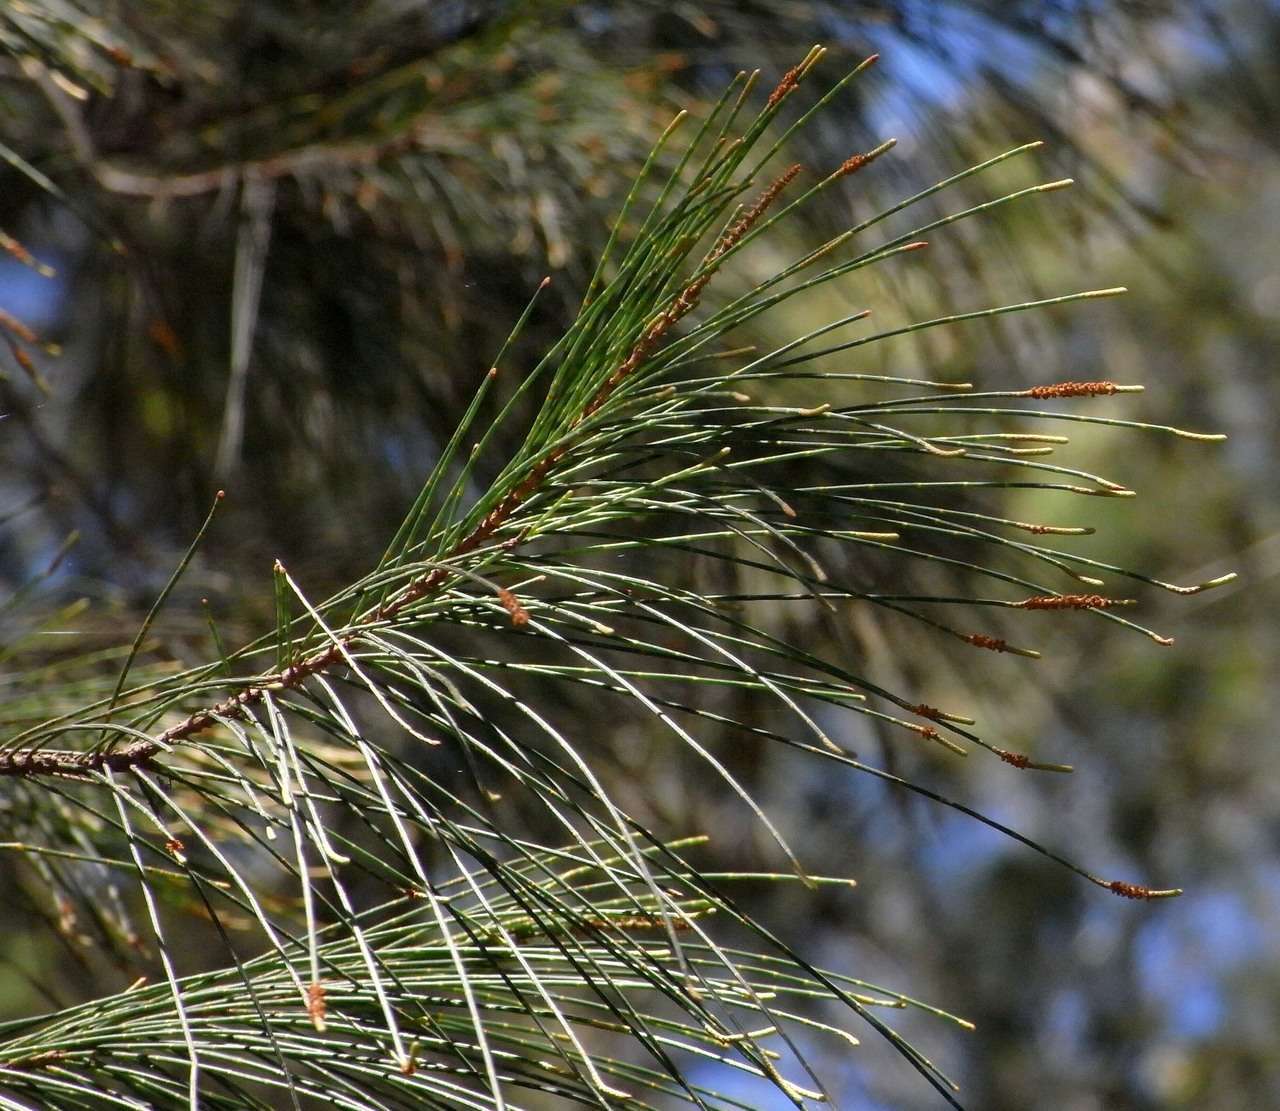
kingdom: Plantae
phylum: Tracheophyta
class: Magnoliopsida
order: Fagales
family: Casuarinaceae
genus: Allocasuarina
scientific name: Allocasuarina littoralis
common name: Black she-oak
